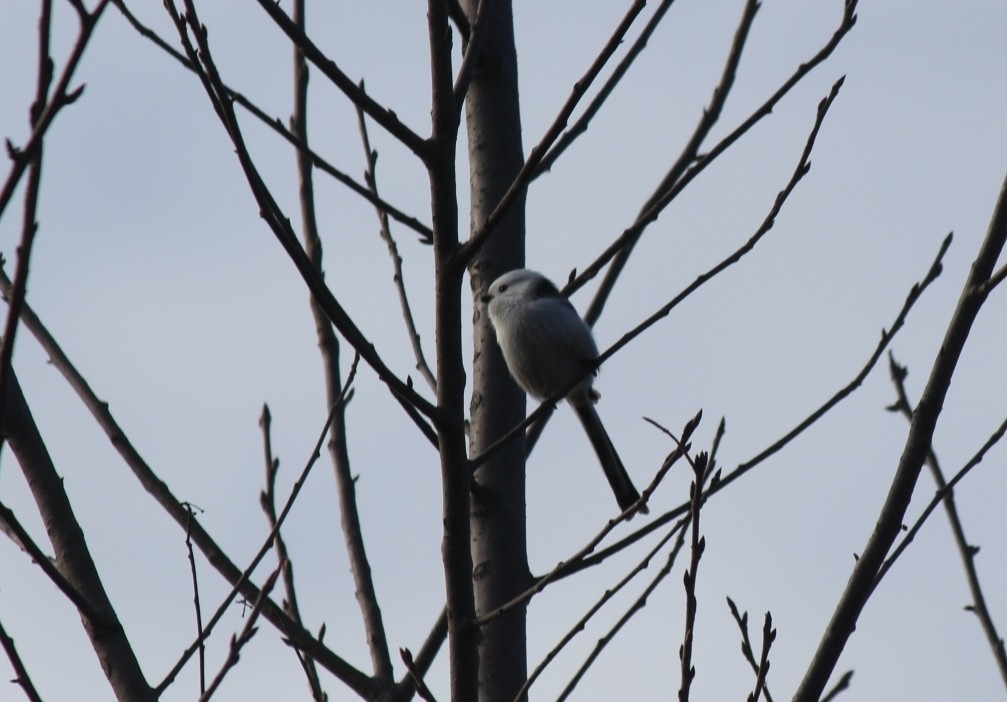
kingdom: Animalia
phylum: Chordata
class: Aves
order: Passeriformes
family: Aegithalidae
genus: Aegithalos
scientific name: Aegithalos caudatus
